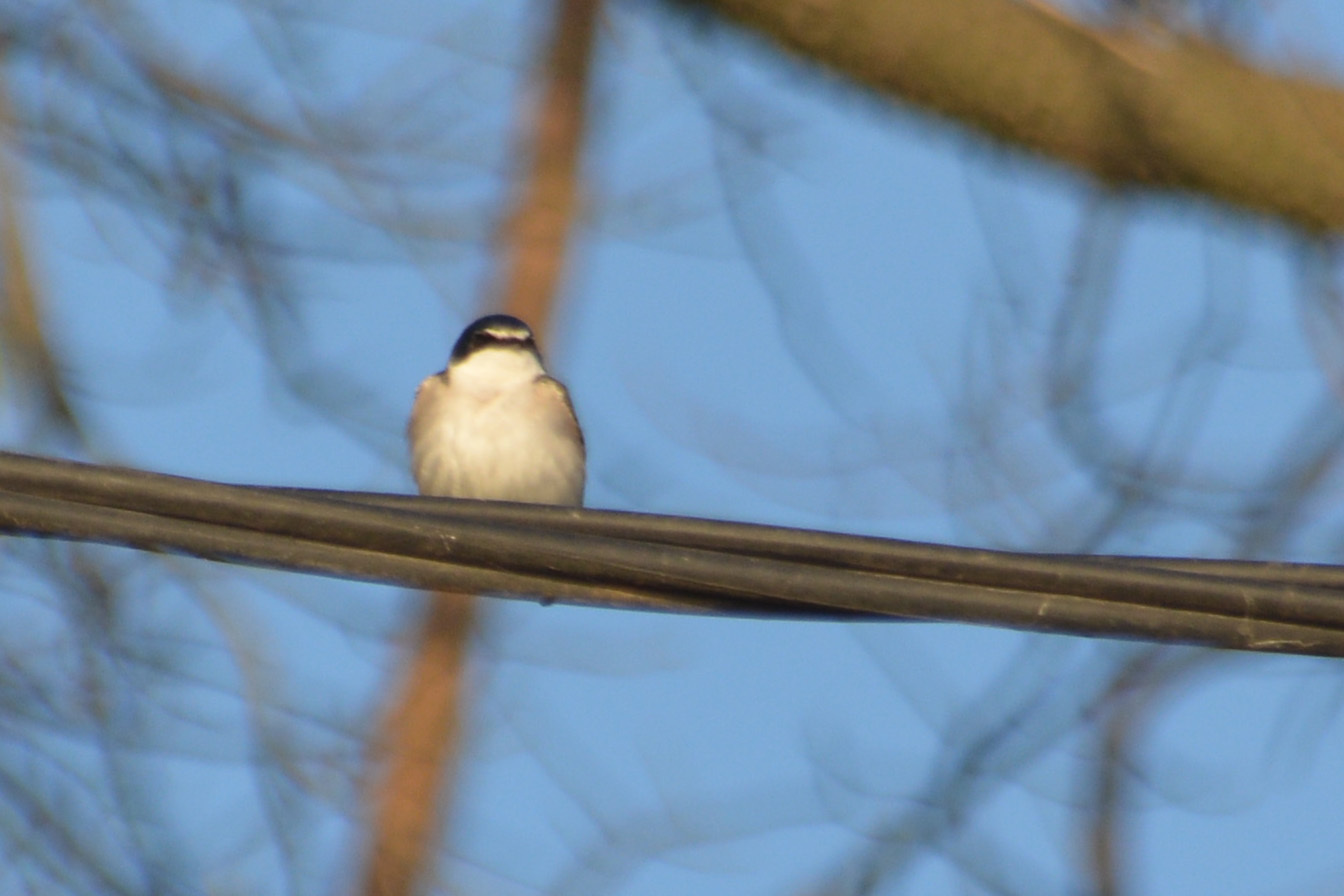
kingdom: Animalia
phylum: Chordata
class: Aves
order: Passeriformes
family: Hirundinidae
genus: Tachycineta
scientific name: Tachycineta leucorrhoa
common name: White-rumped swallow
